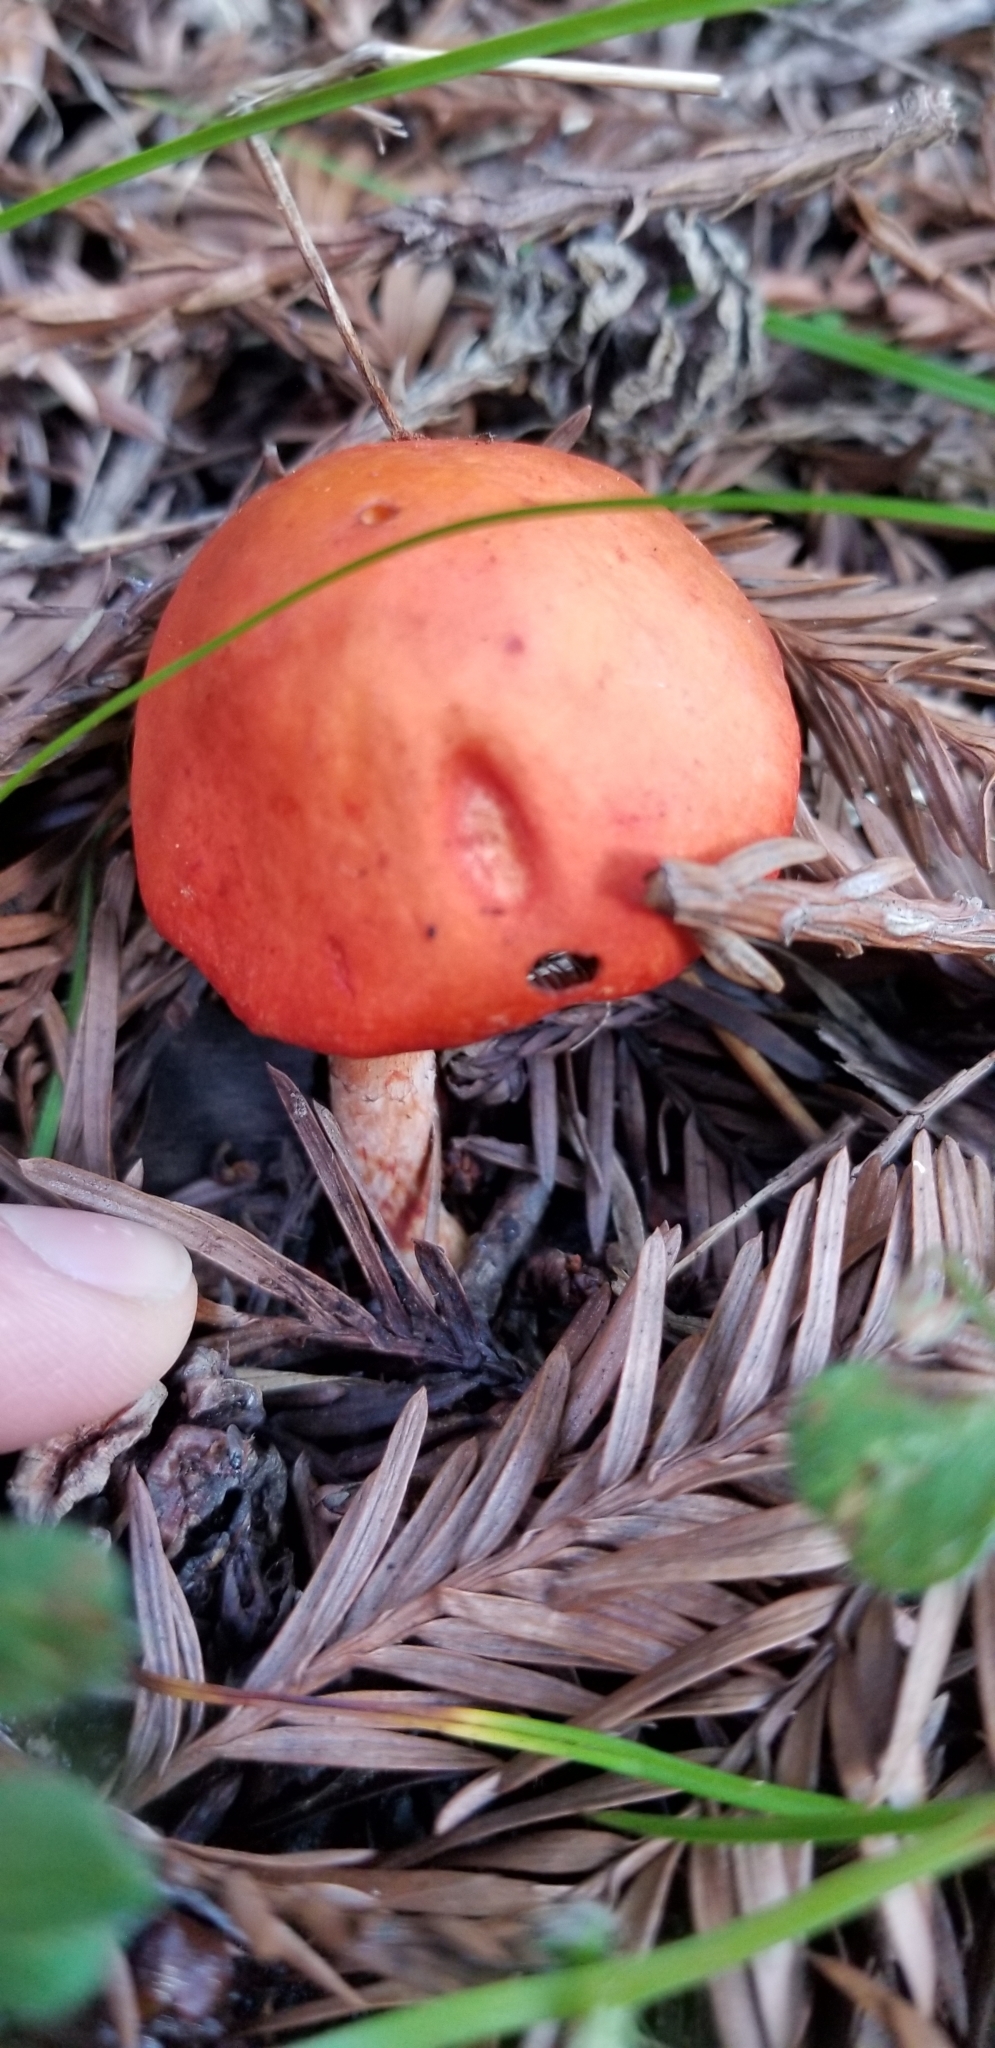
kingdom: Fungi
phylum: Basidiomycota
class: Agaricomycetes
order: Agaricales
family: Strophariaceae
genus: Leratiomyces
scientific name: Leratiomyces ceres
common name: Redlead roundhead
